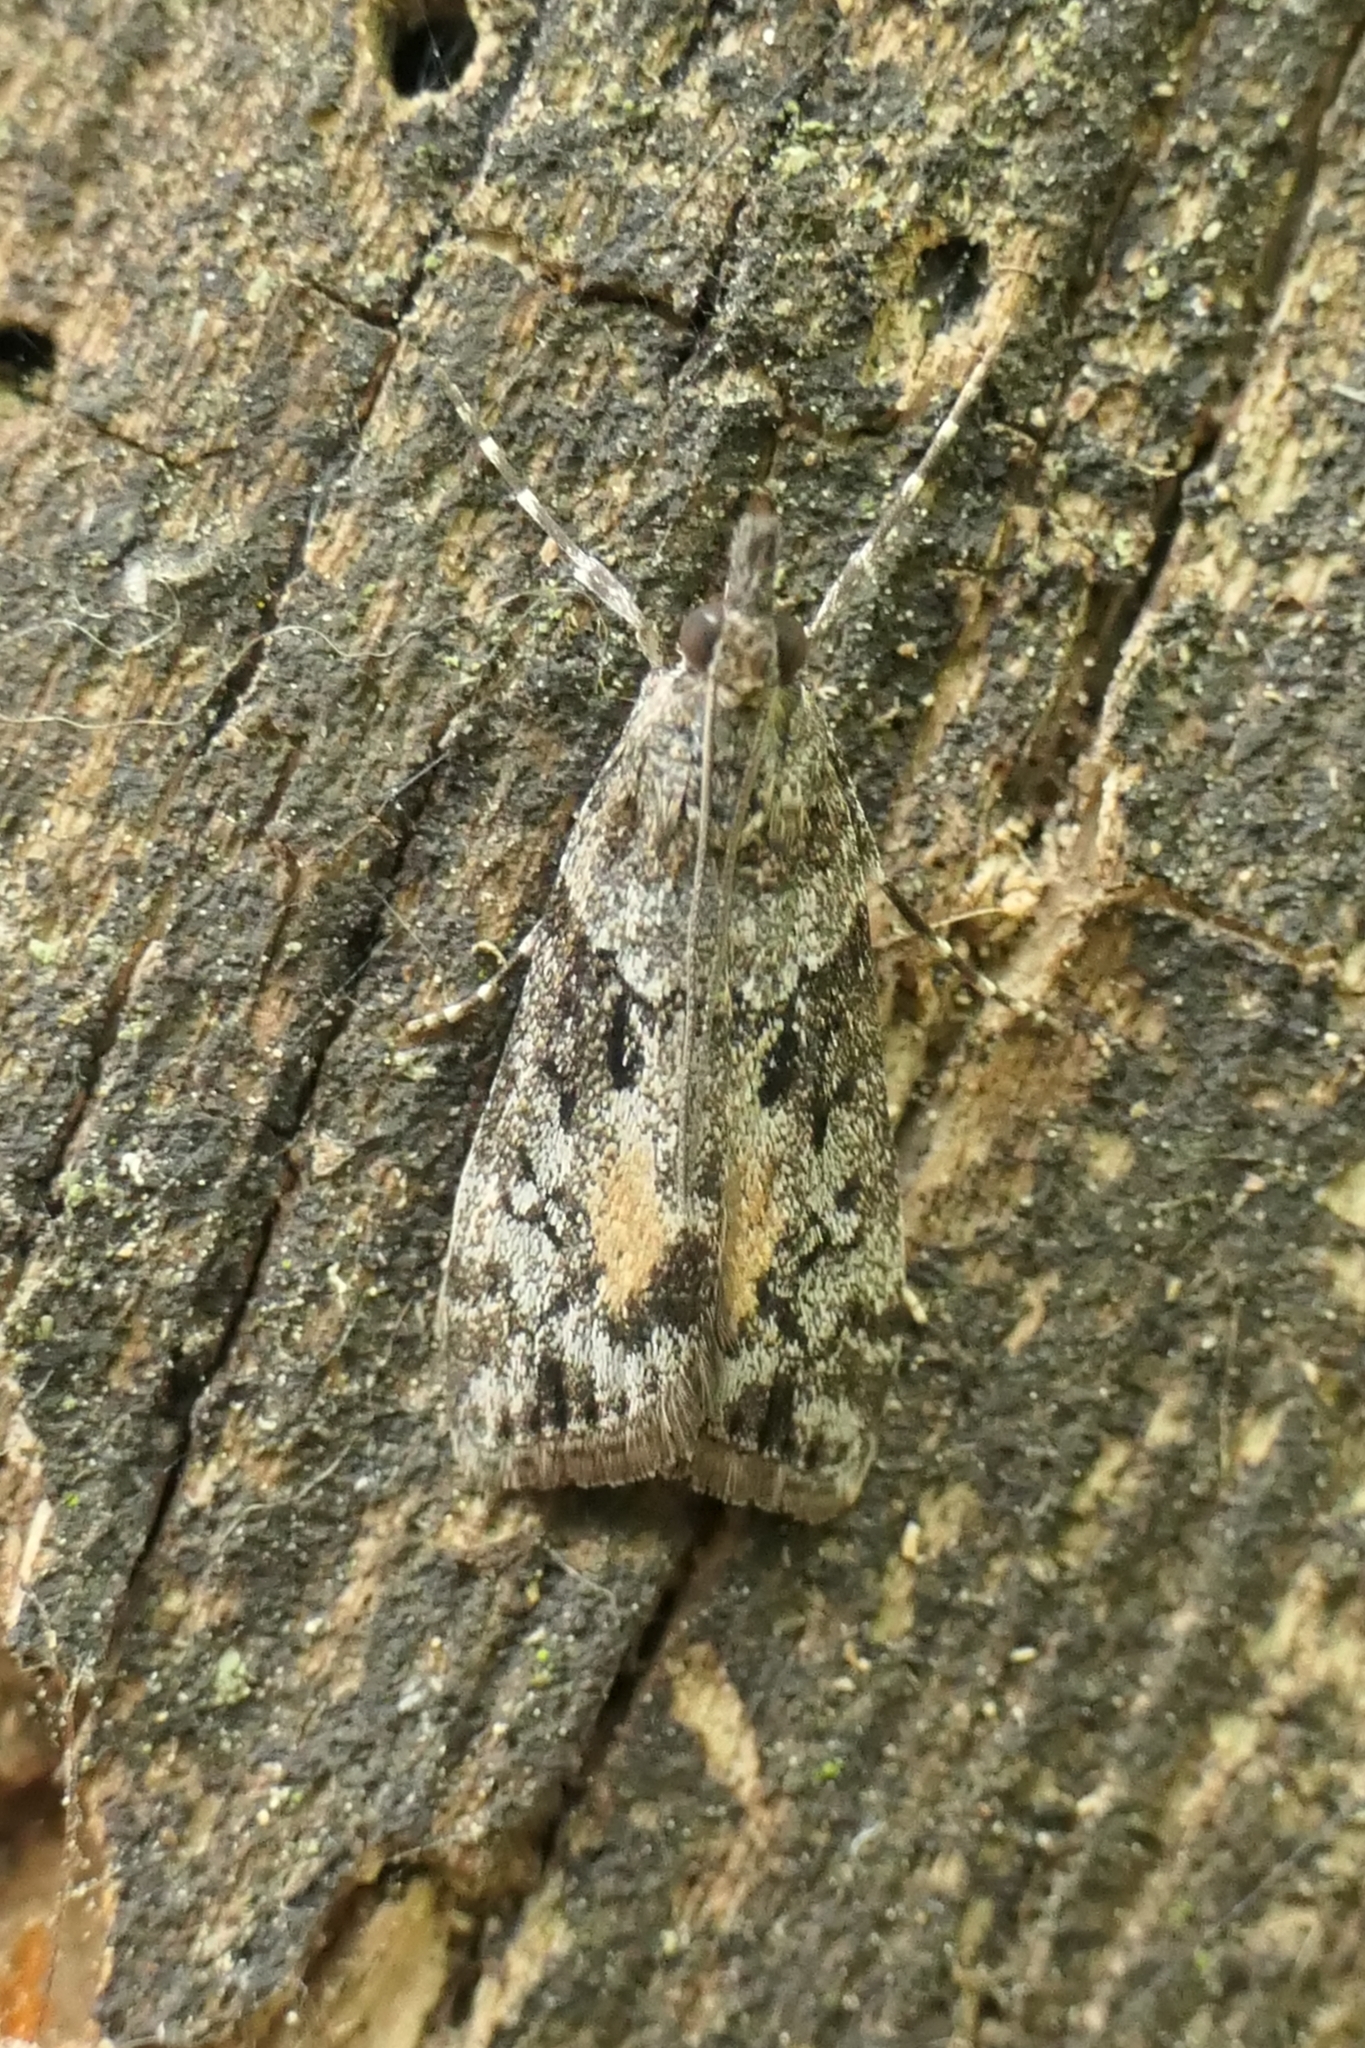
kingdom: Animalia
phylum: Arthropoda
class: Insecta
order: Lepidoptera
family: Crambidae
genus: Eudonia
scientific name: Eudonia submarginalis
